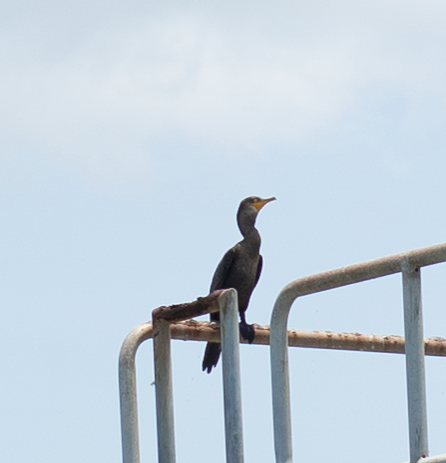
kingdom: Animalia
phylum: Chordata
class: Aves
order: Suliformes
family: Phalacrocoracidae
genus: Phalacrocorax
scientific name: Phalacrocorax brasilianus
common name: Neotropic cormorant
